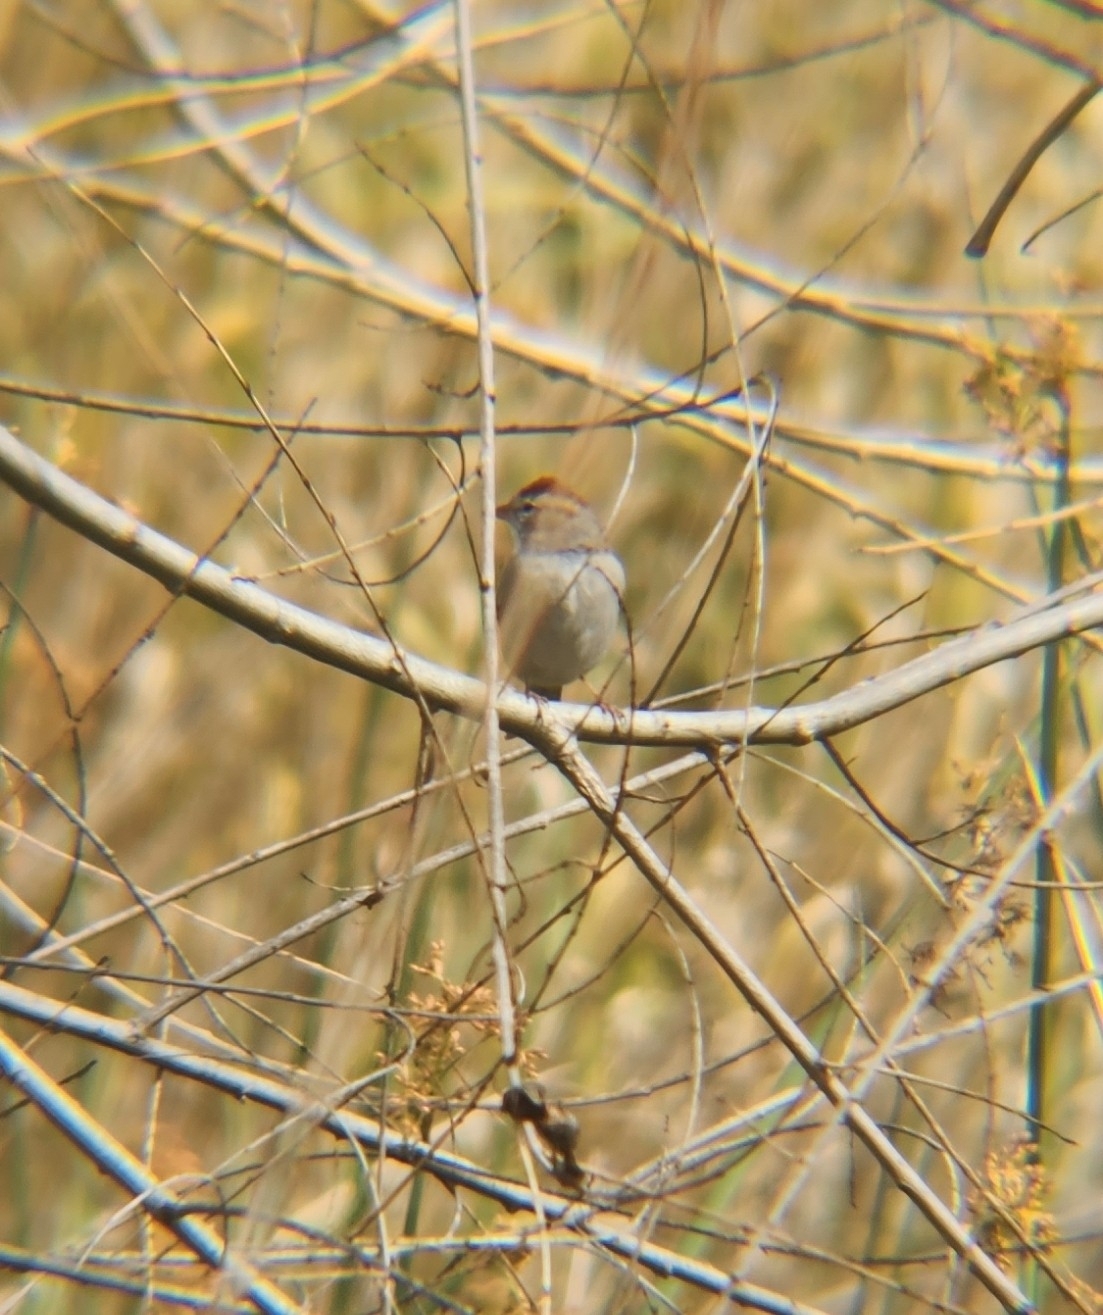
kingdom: Animalia
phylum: Chordata
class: Aves
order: Passeriformes
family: Passerellidae
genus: Spizella
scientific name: Spizella passerina
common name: Chipping sparrow
